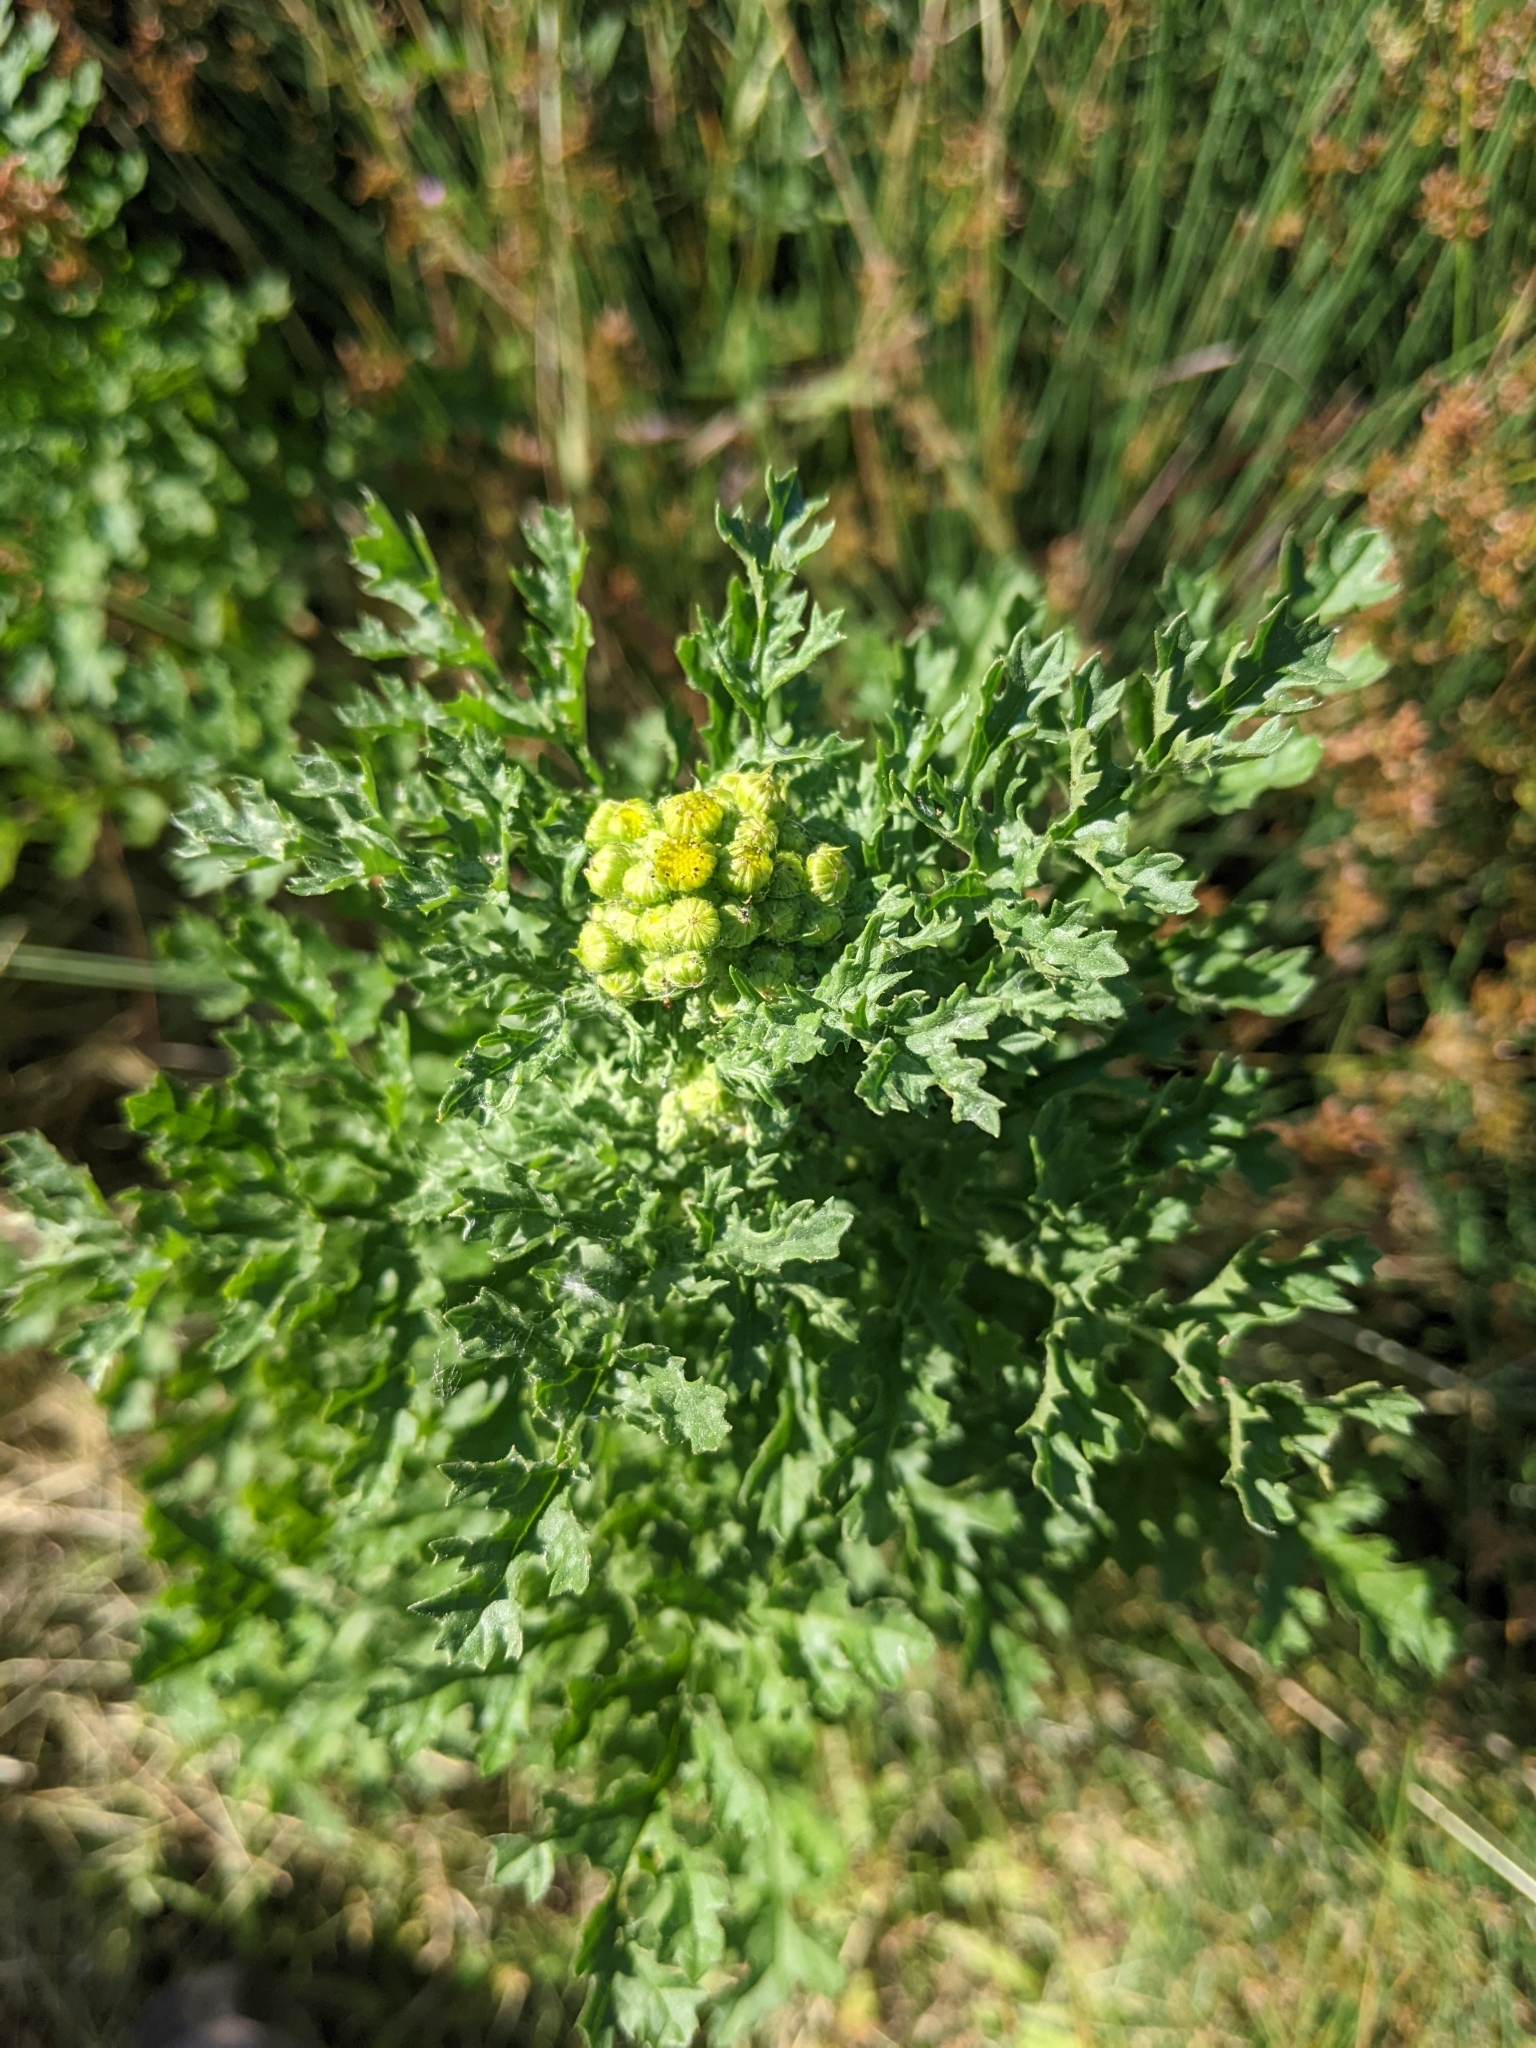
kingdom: Plantae
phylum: Tracheophyta
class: Magnoliopsida
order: Asterales
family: Asteraceae
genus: Jacobaea
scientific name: Jacobaea vulgaris
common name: Stinking willie
